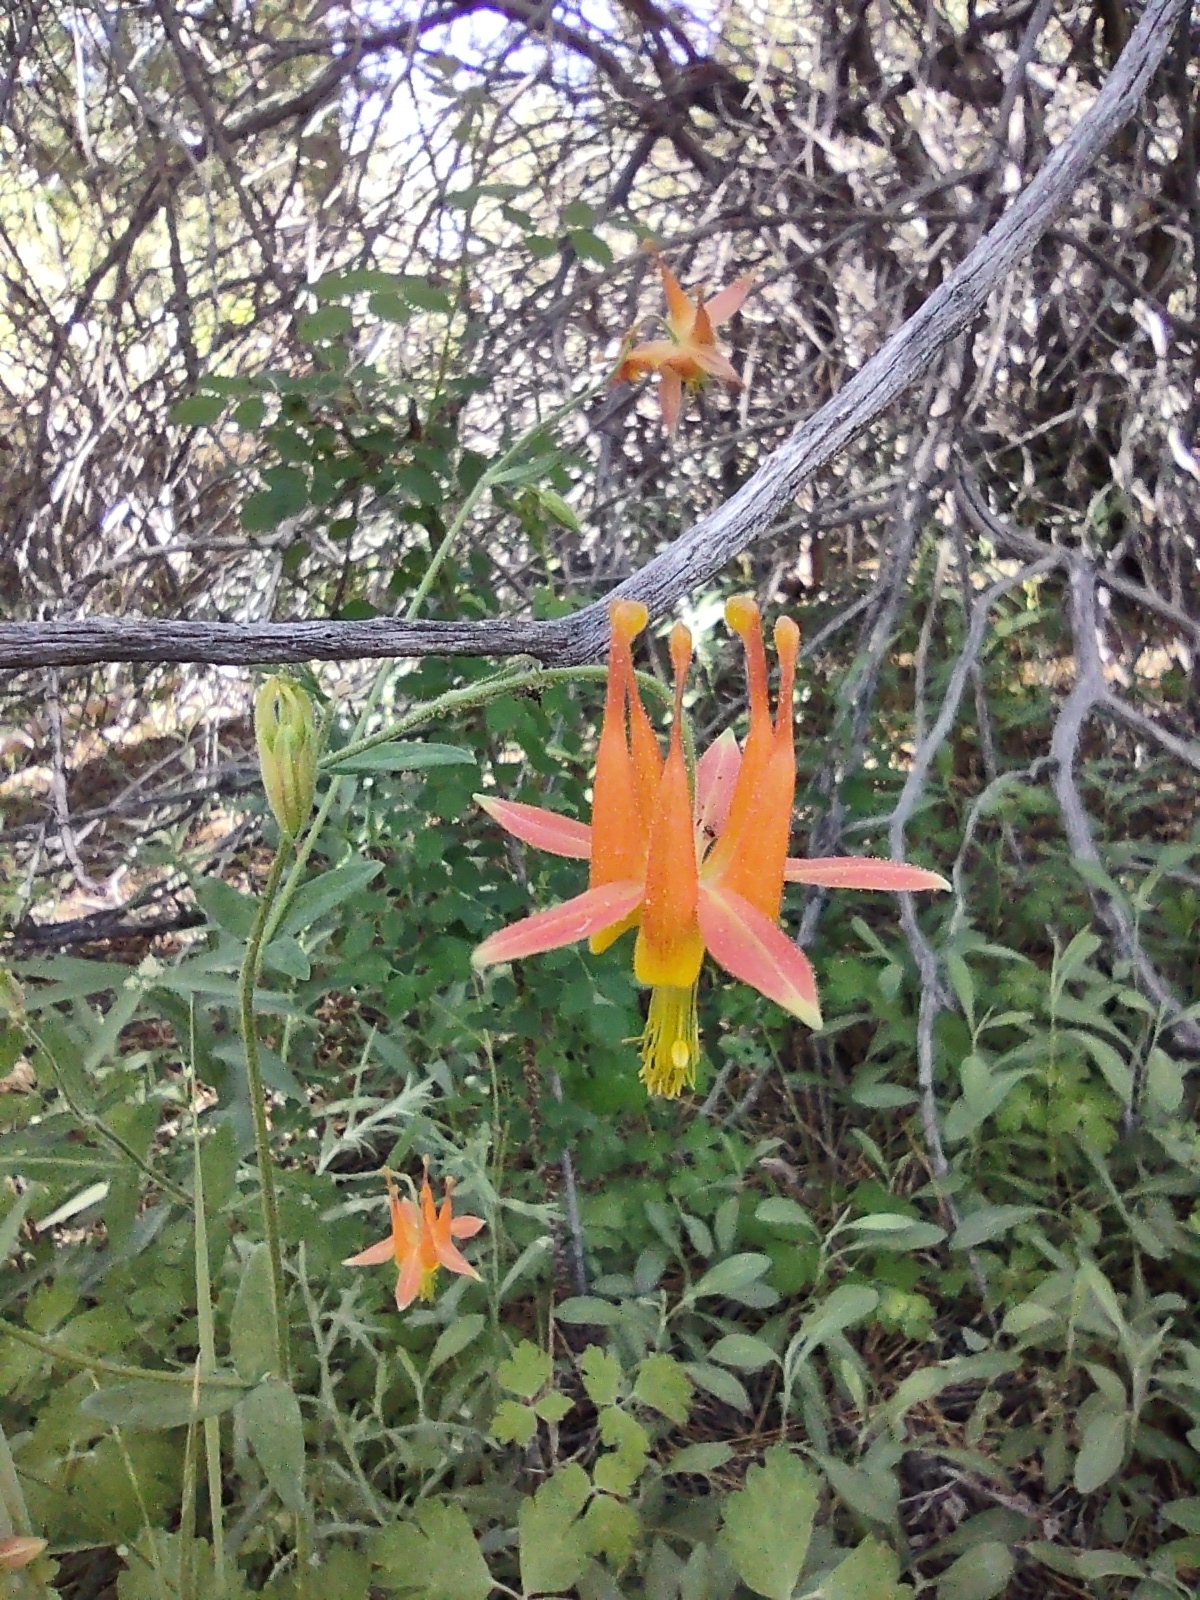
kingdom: Plantae
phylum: Tracheophyta
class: Magnoliopsida
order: Ranunculales
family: Ranunculaceae
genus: Aquilegia
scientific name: Aquilegia formosa
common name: Sitka columbine
